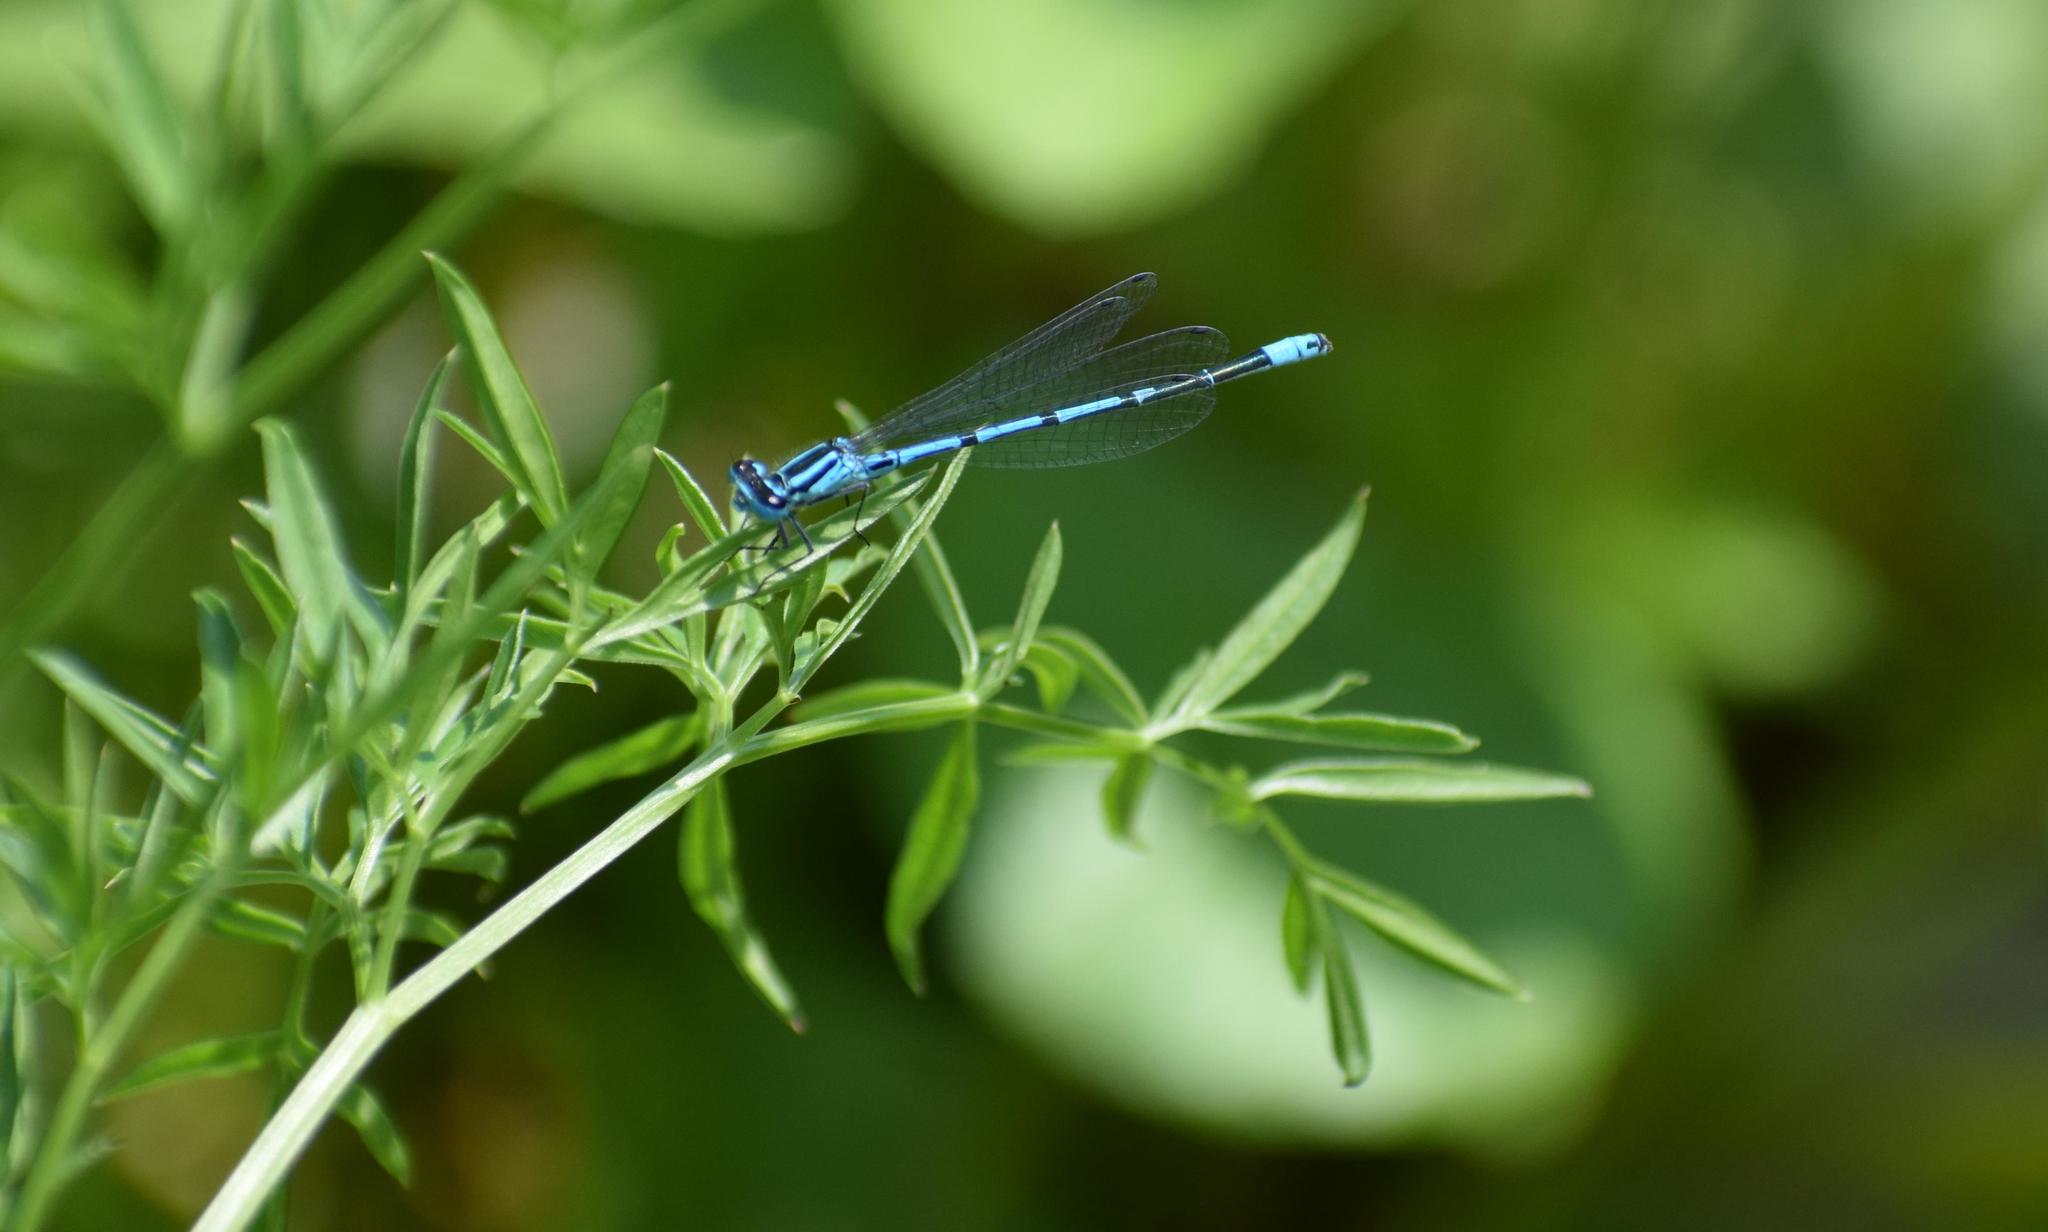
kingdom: Animalia
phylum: Arthropoda
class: Insecta
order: Odonata
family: Coenagrionidae
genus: Coenagrion
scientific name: Coenagrion puella
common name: Azure damselfly
